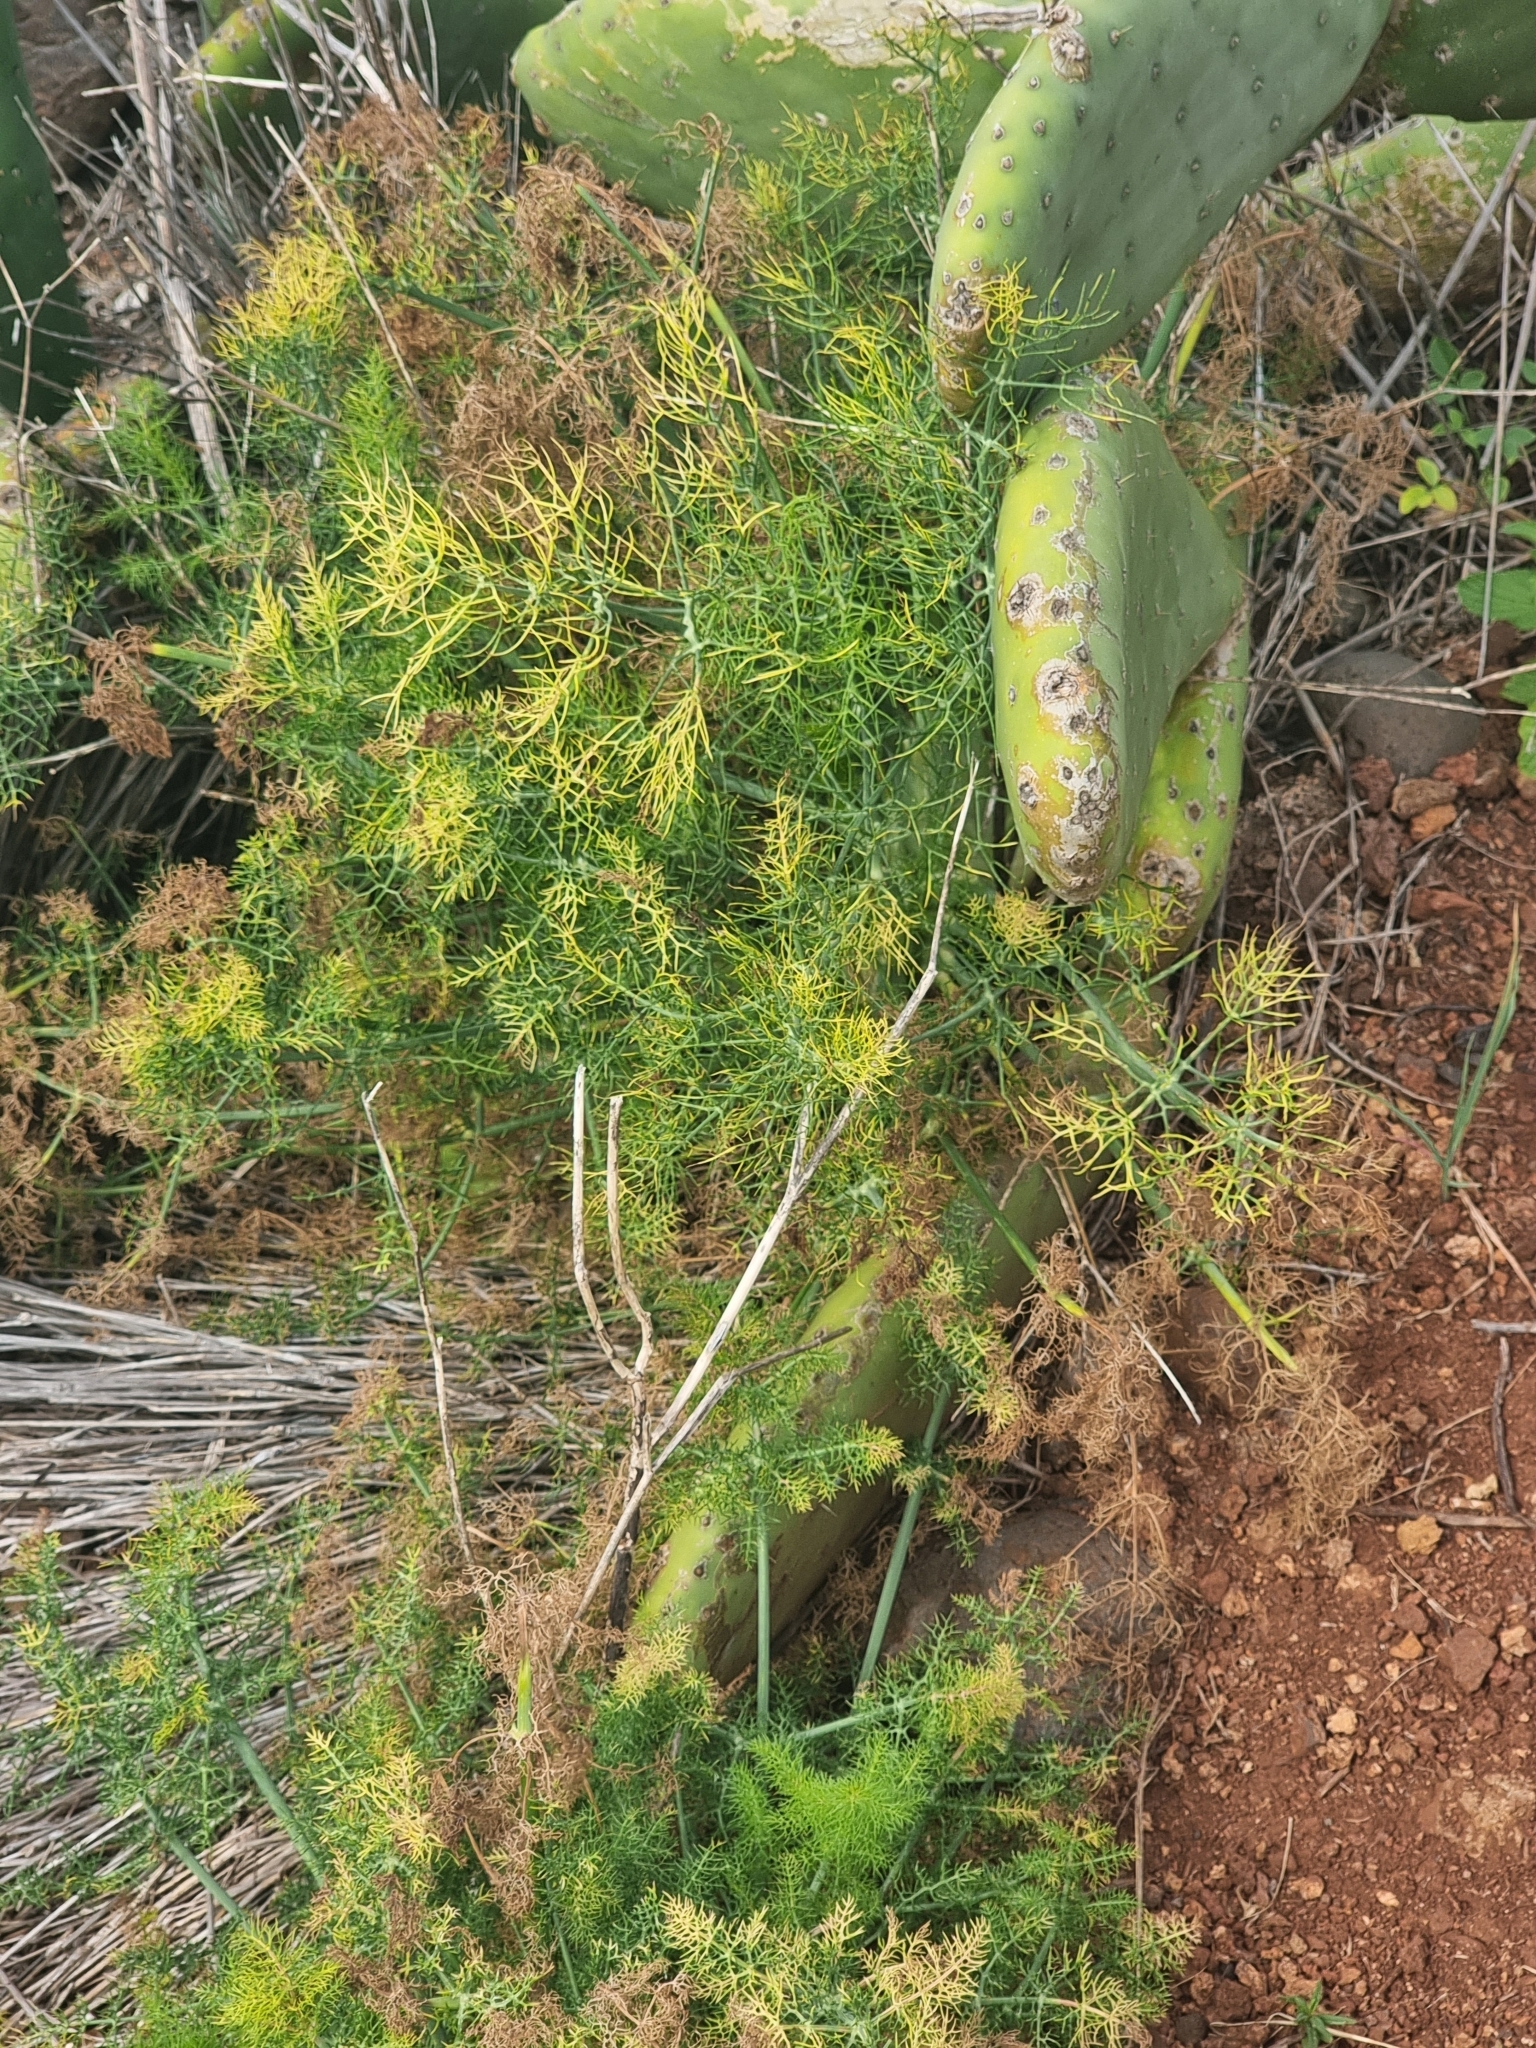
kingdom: Plantae
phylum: Tracheophyta
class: Magnoliopsida
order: Apiales
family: Apiaceae
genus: Foeniculum
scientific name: Foeniculum vulgare
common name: Fennel
